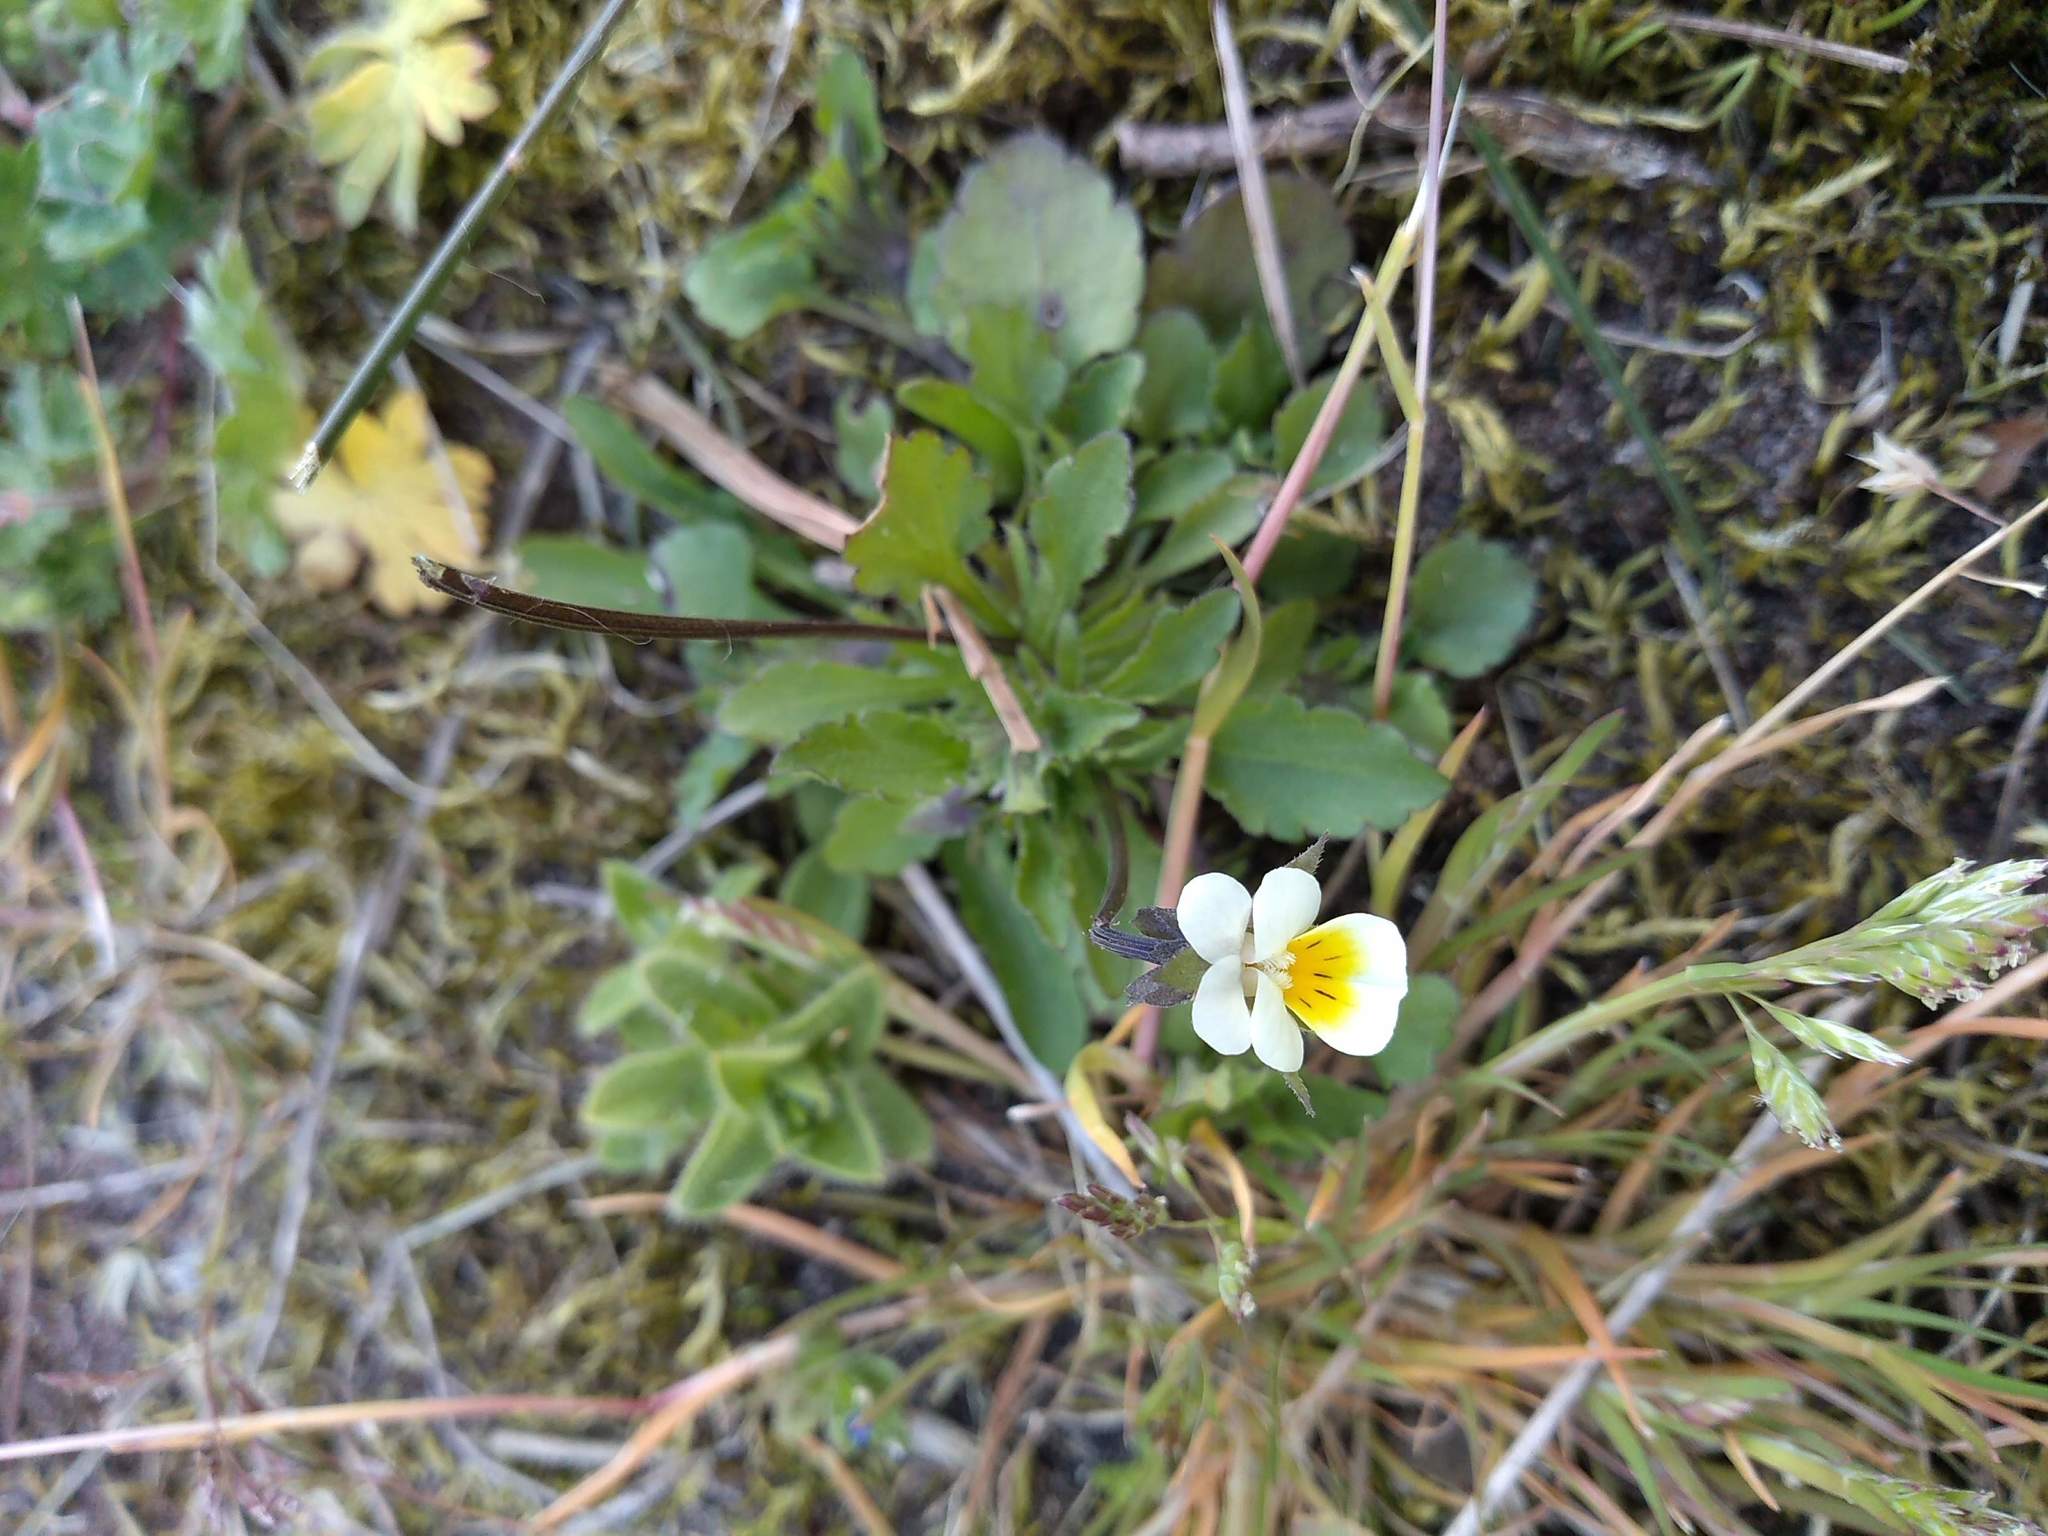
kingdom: Plantae
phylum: Tracheophyta
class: Magnoliopsida
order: Malpighiales
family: Violaceae
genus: Viola
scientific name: Viola arvensis
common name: Field pansy
